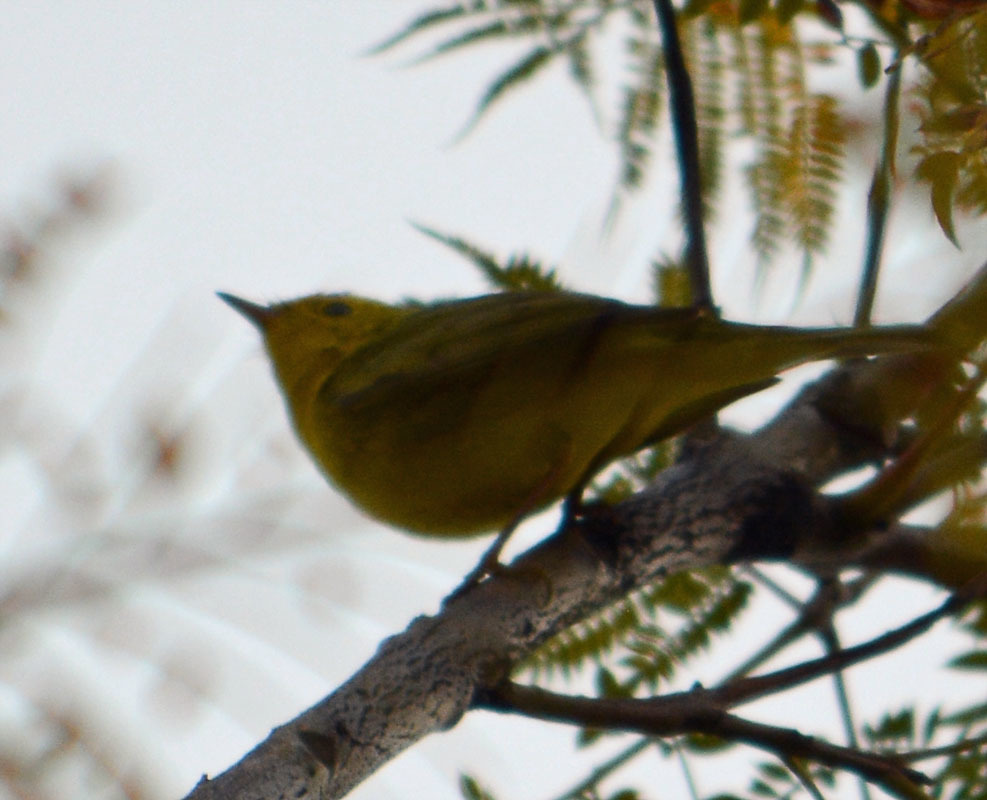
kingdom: Animalia
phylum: Chordata
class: Aves
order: Passeriformes
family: Parulidae
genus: Setophaga
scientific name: Setophaga petechia
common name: Yellow warbler
